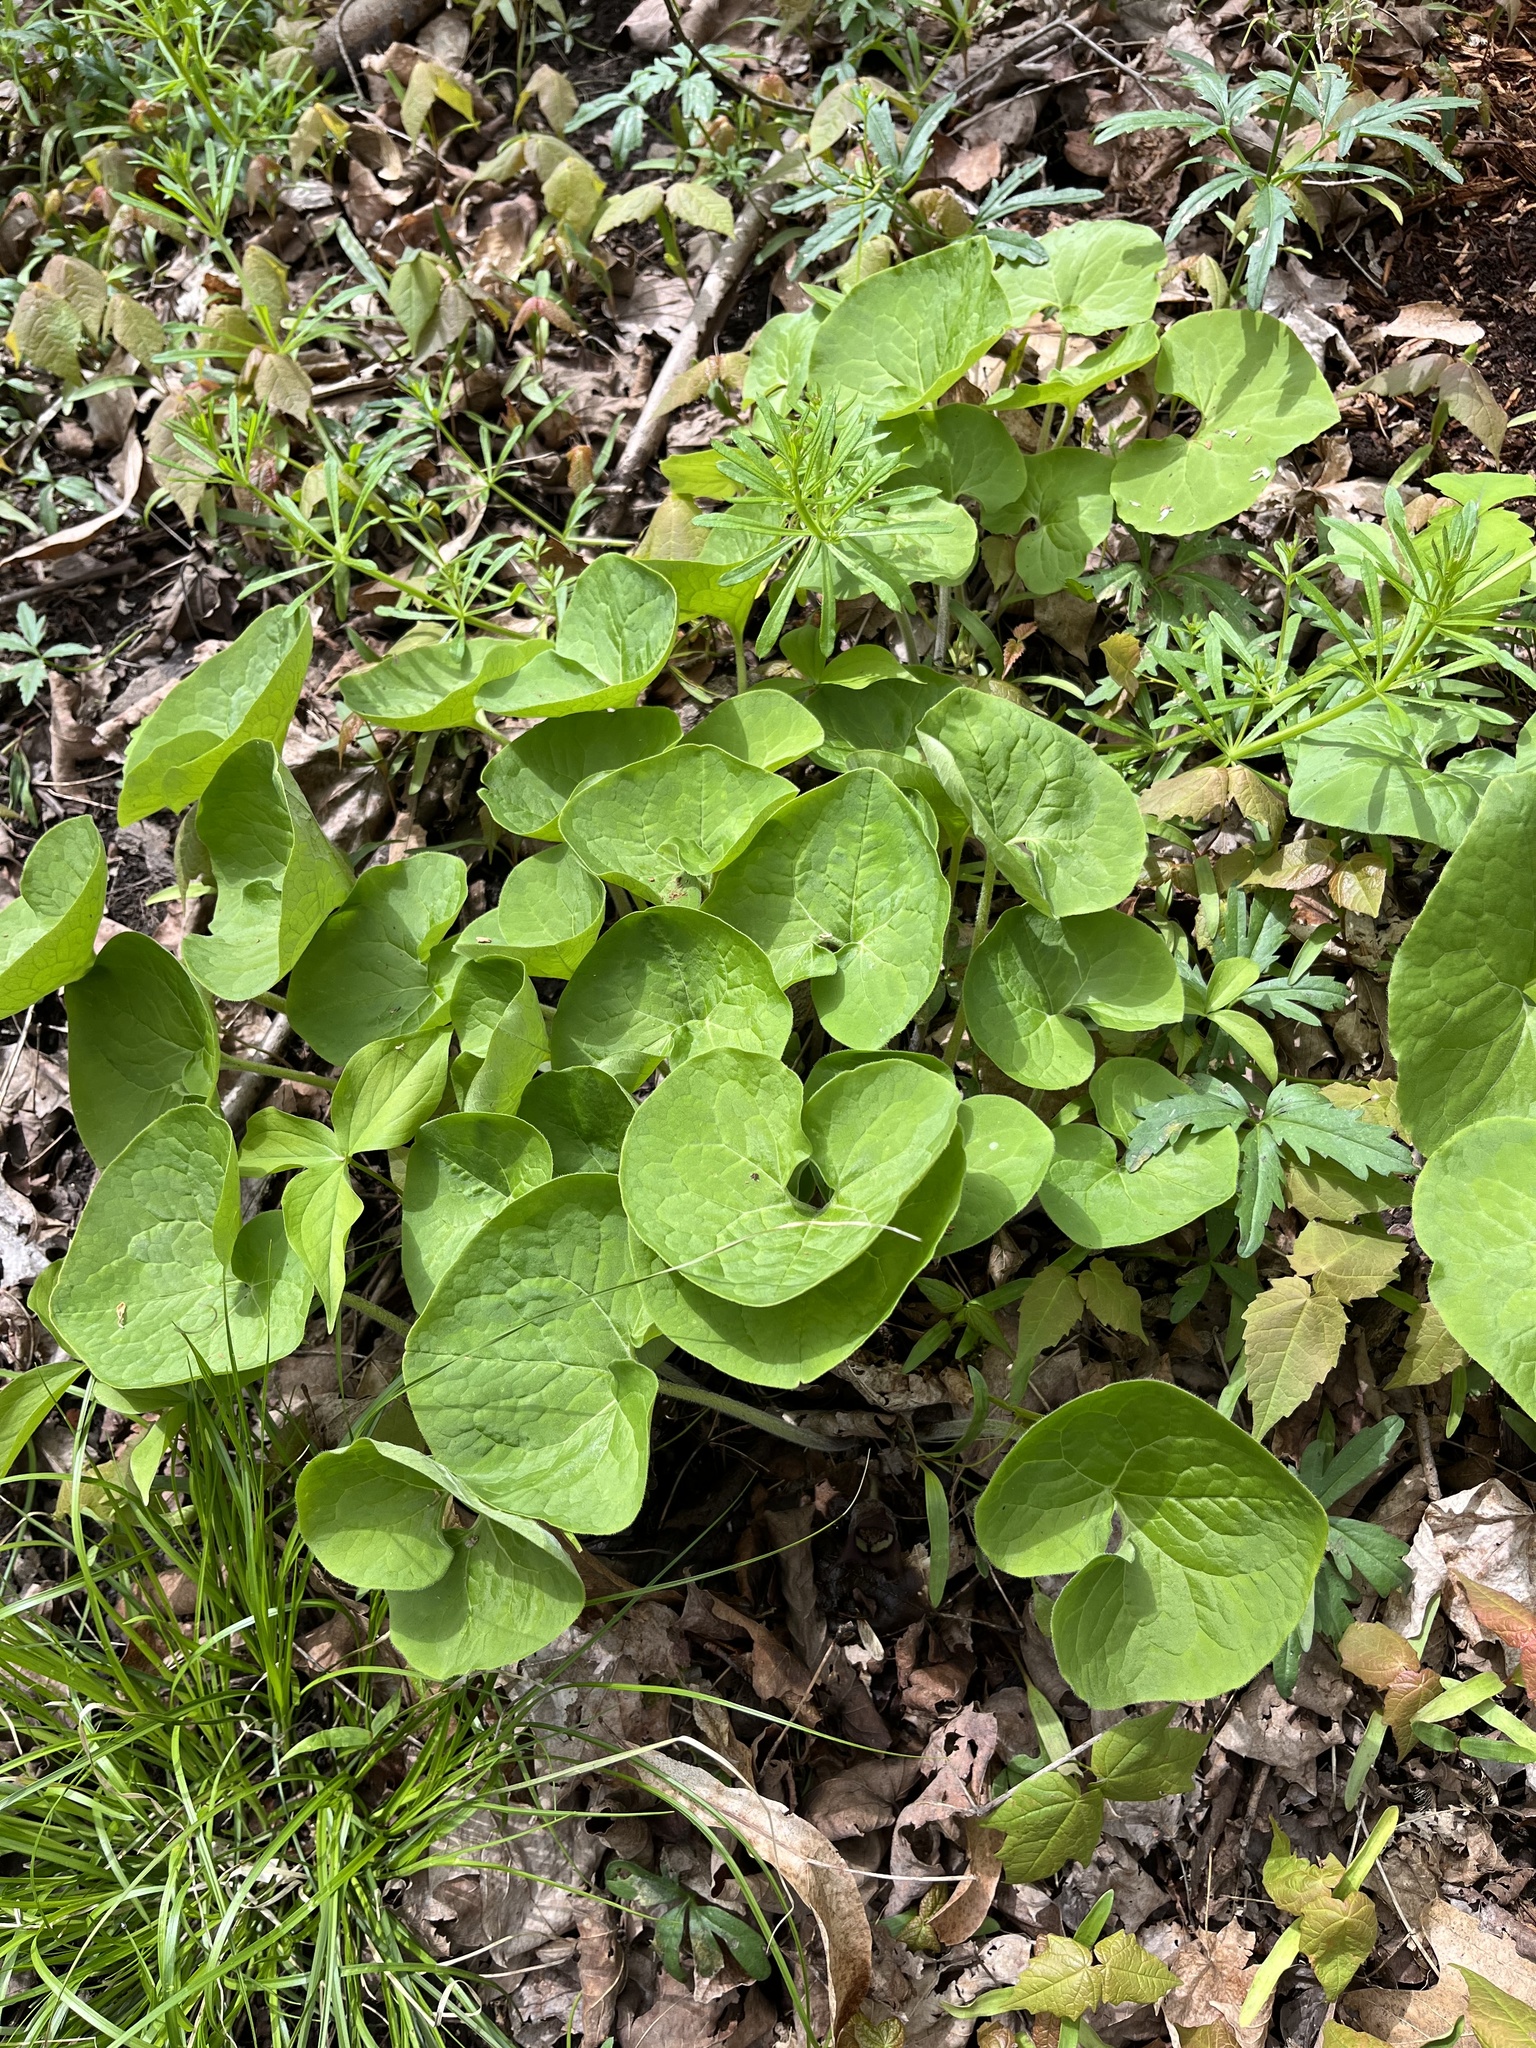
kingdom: Plantae
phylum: Tracheophyta
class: Magnoliopsida
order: Piperales
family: Aristolochiaceae
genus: Asarum
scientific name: Asarum canadense
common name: Wild ginger
